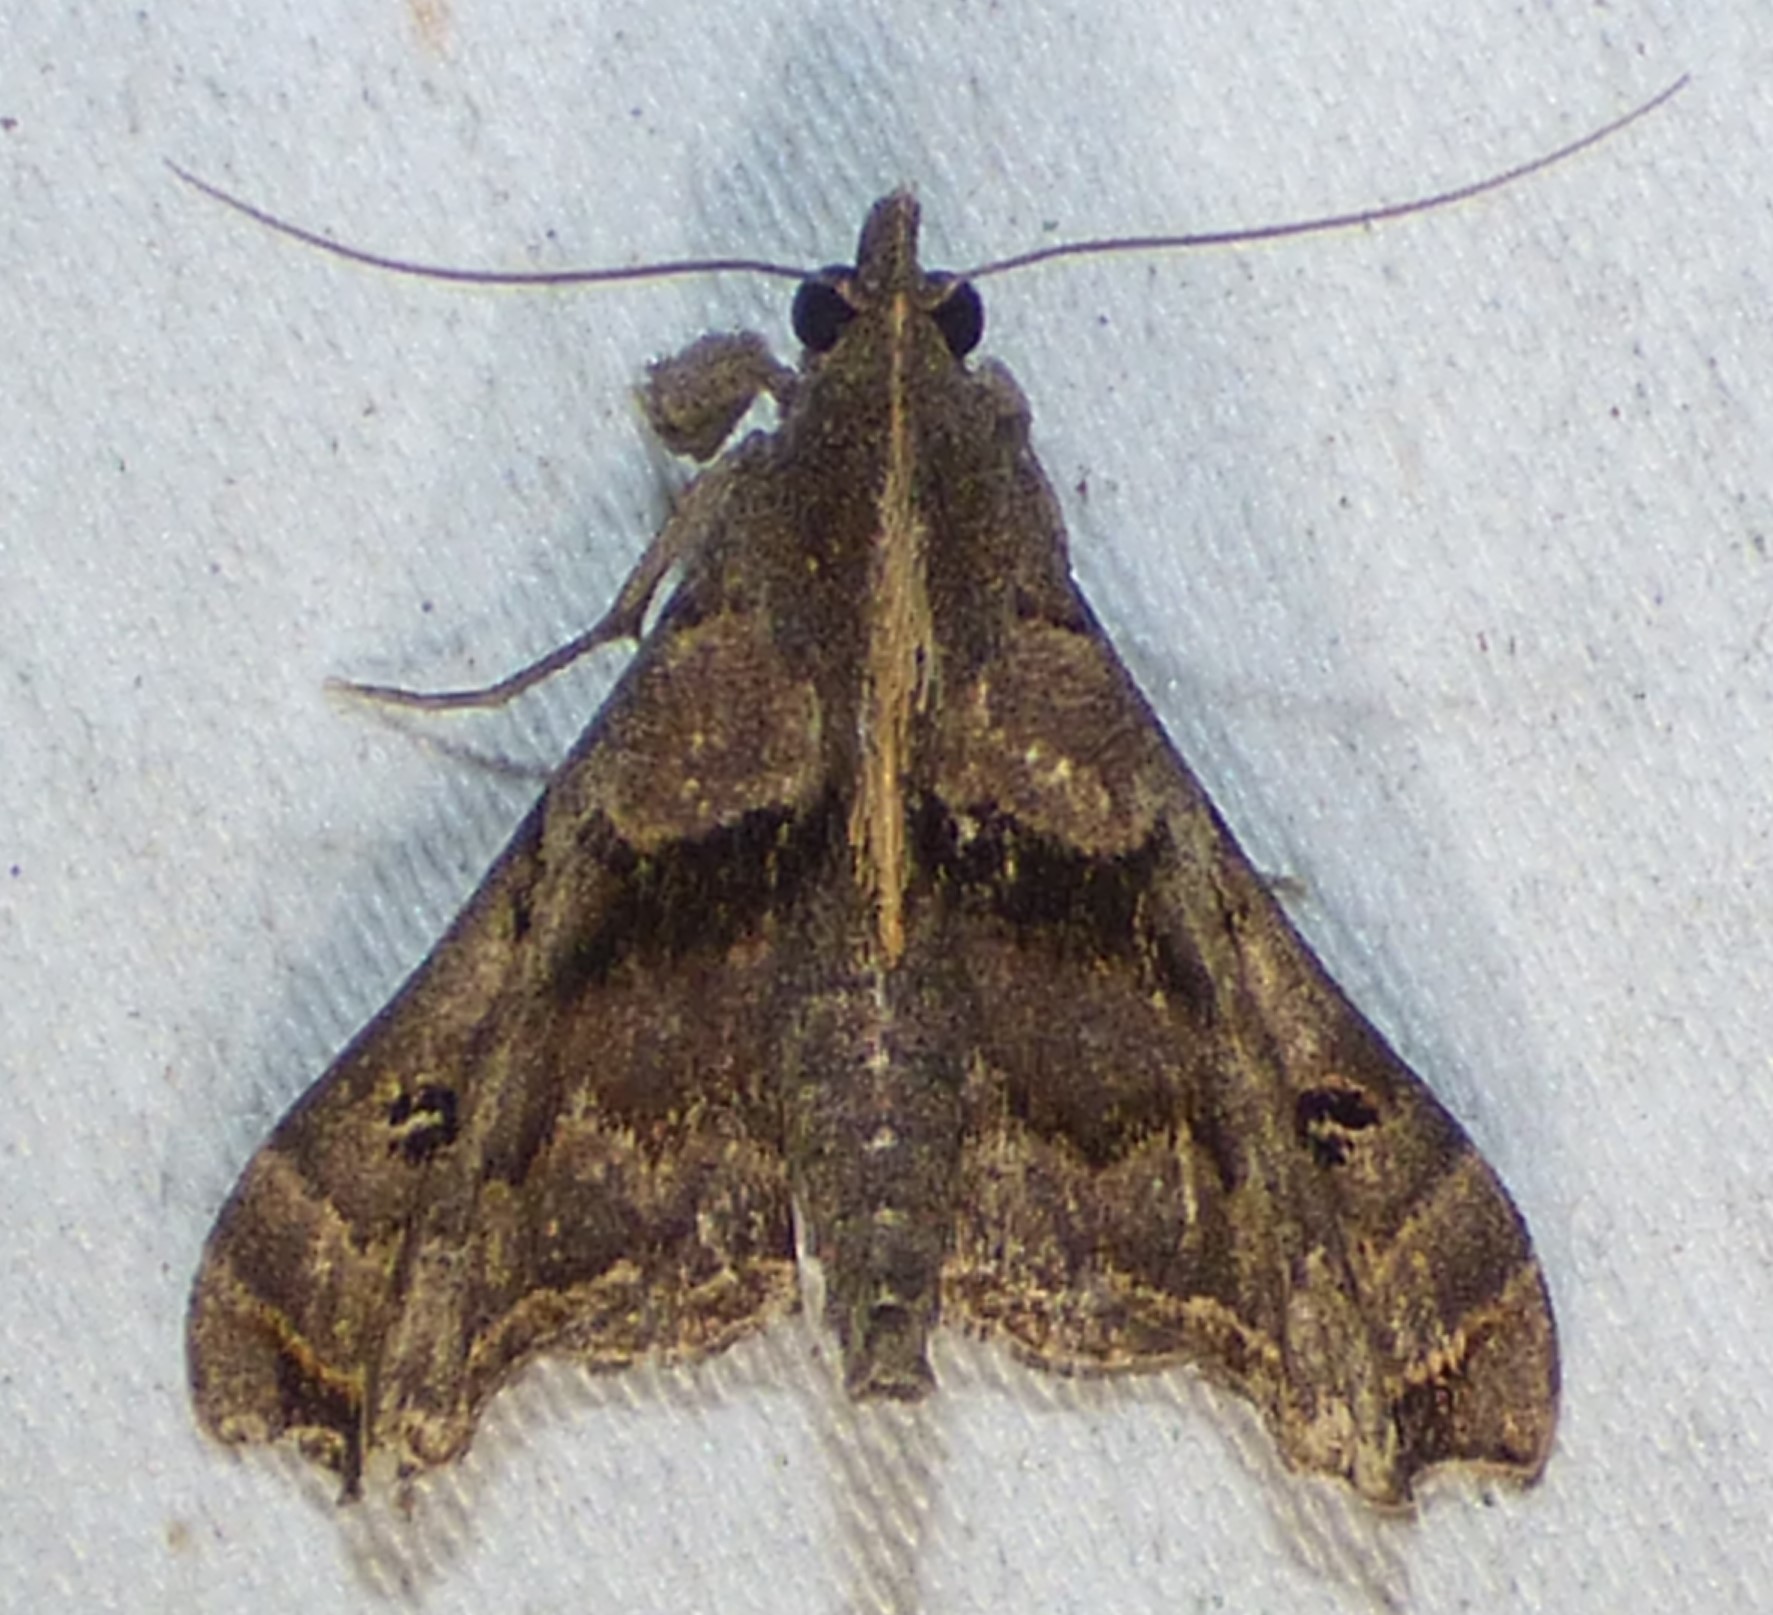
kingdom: Animalia
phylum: Arthropoda
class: Insecta
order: Lepidoptera
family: Erebidae
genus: Palthis
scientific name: Palthis asopialis
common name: Faint-spotted palthis moth
